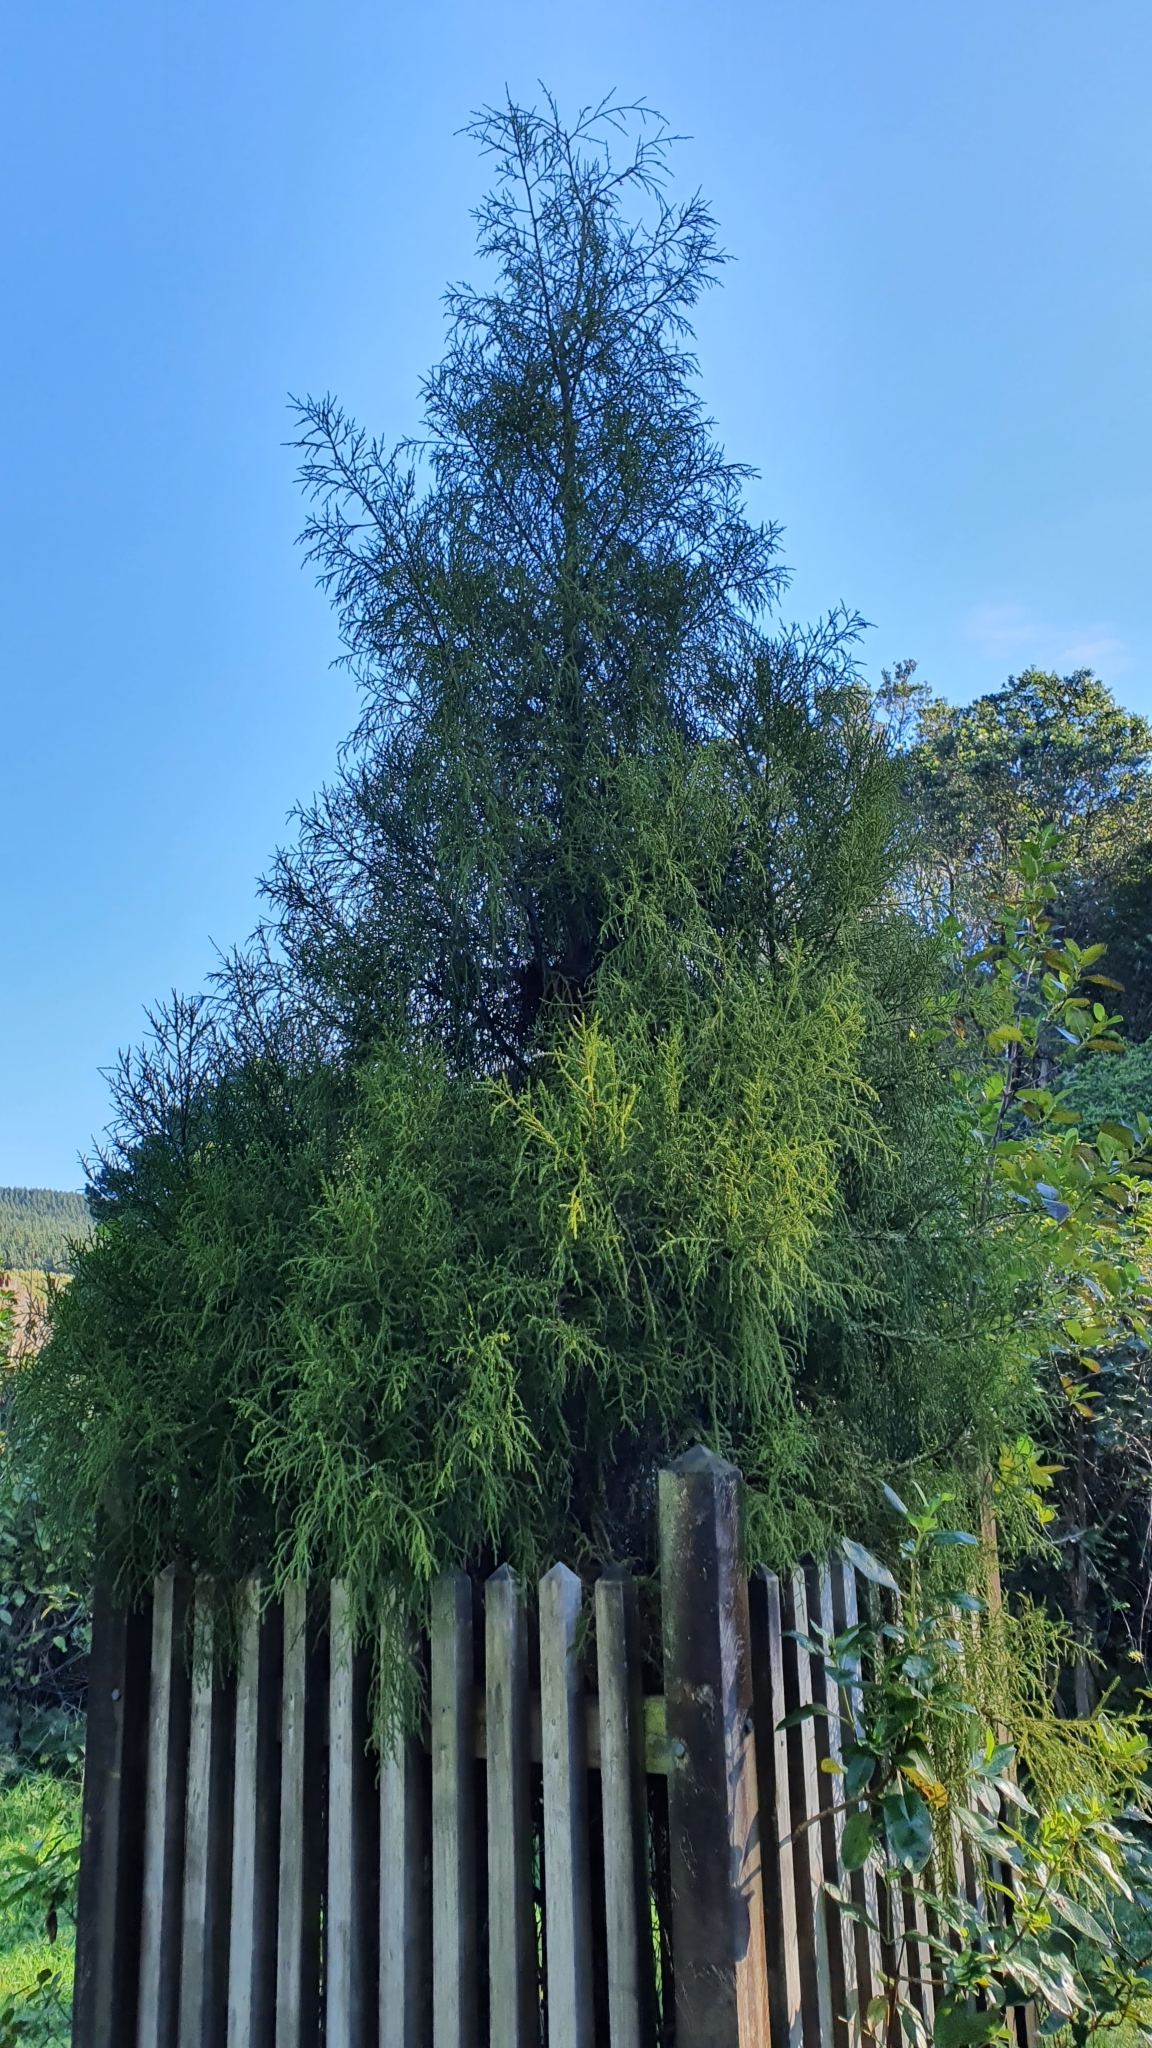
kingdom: Plantae
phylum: Tracheophyta
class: Pinopsida
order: Pinales
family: Podocarpaceae
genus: Dacrydium
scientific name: Dacrydium cupressinum
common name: Red pine
